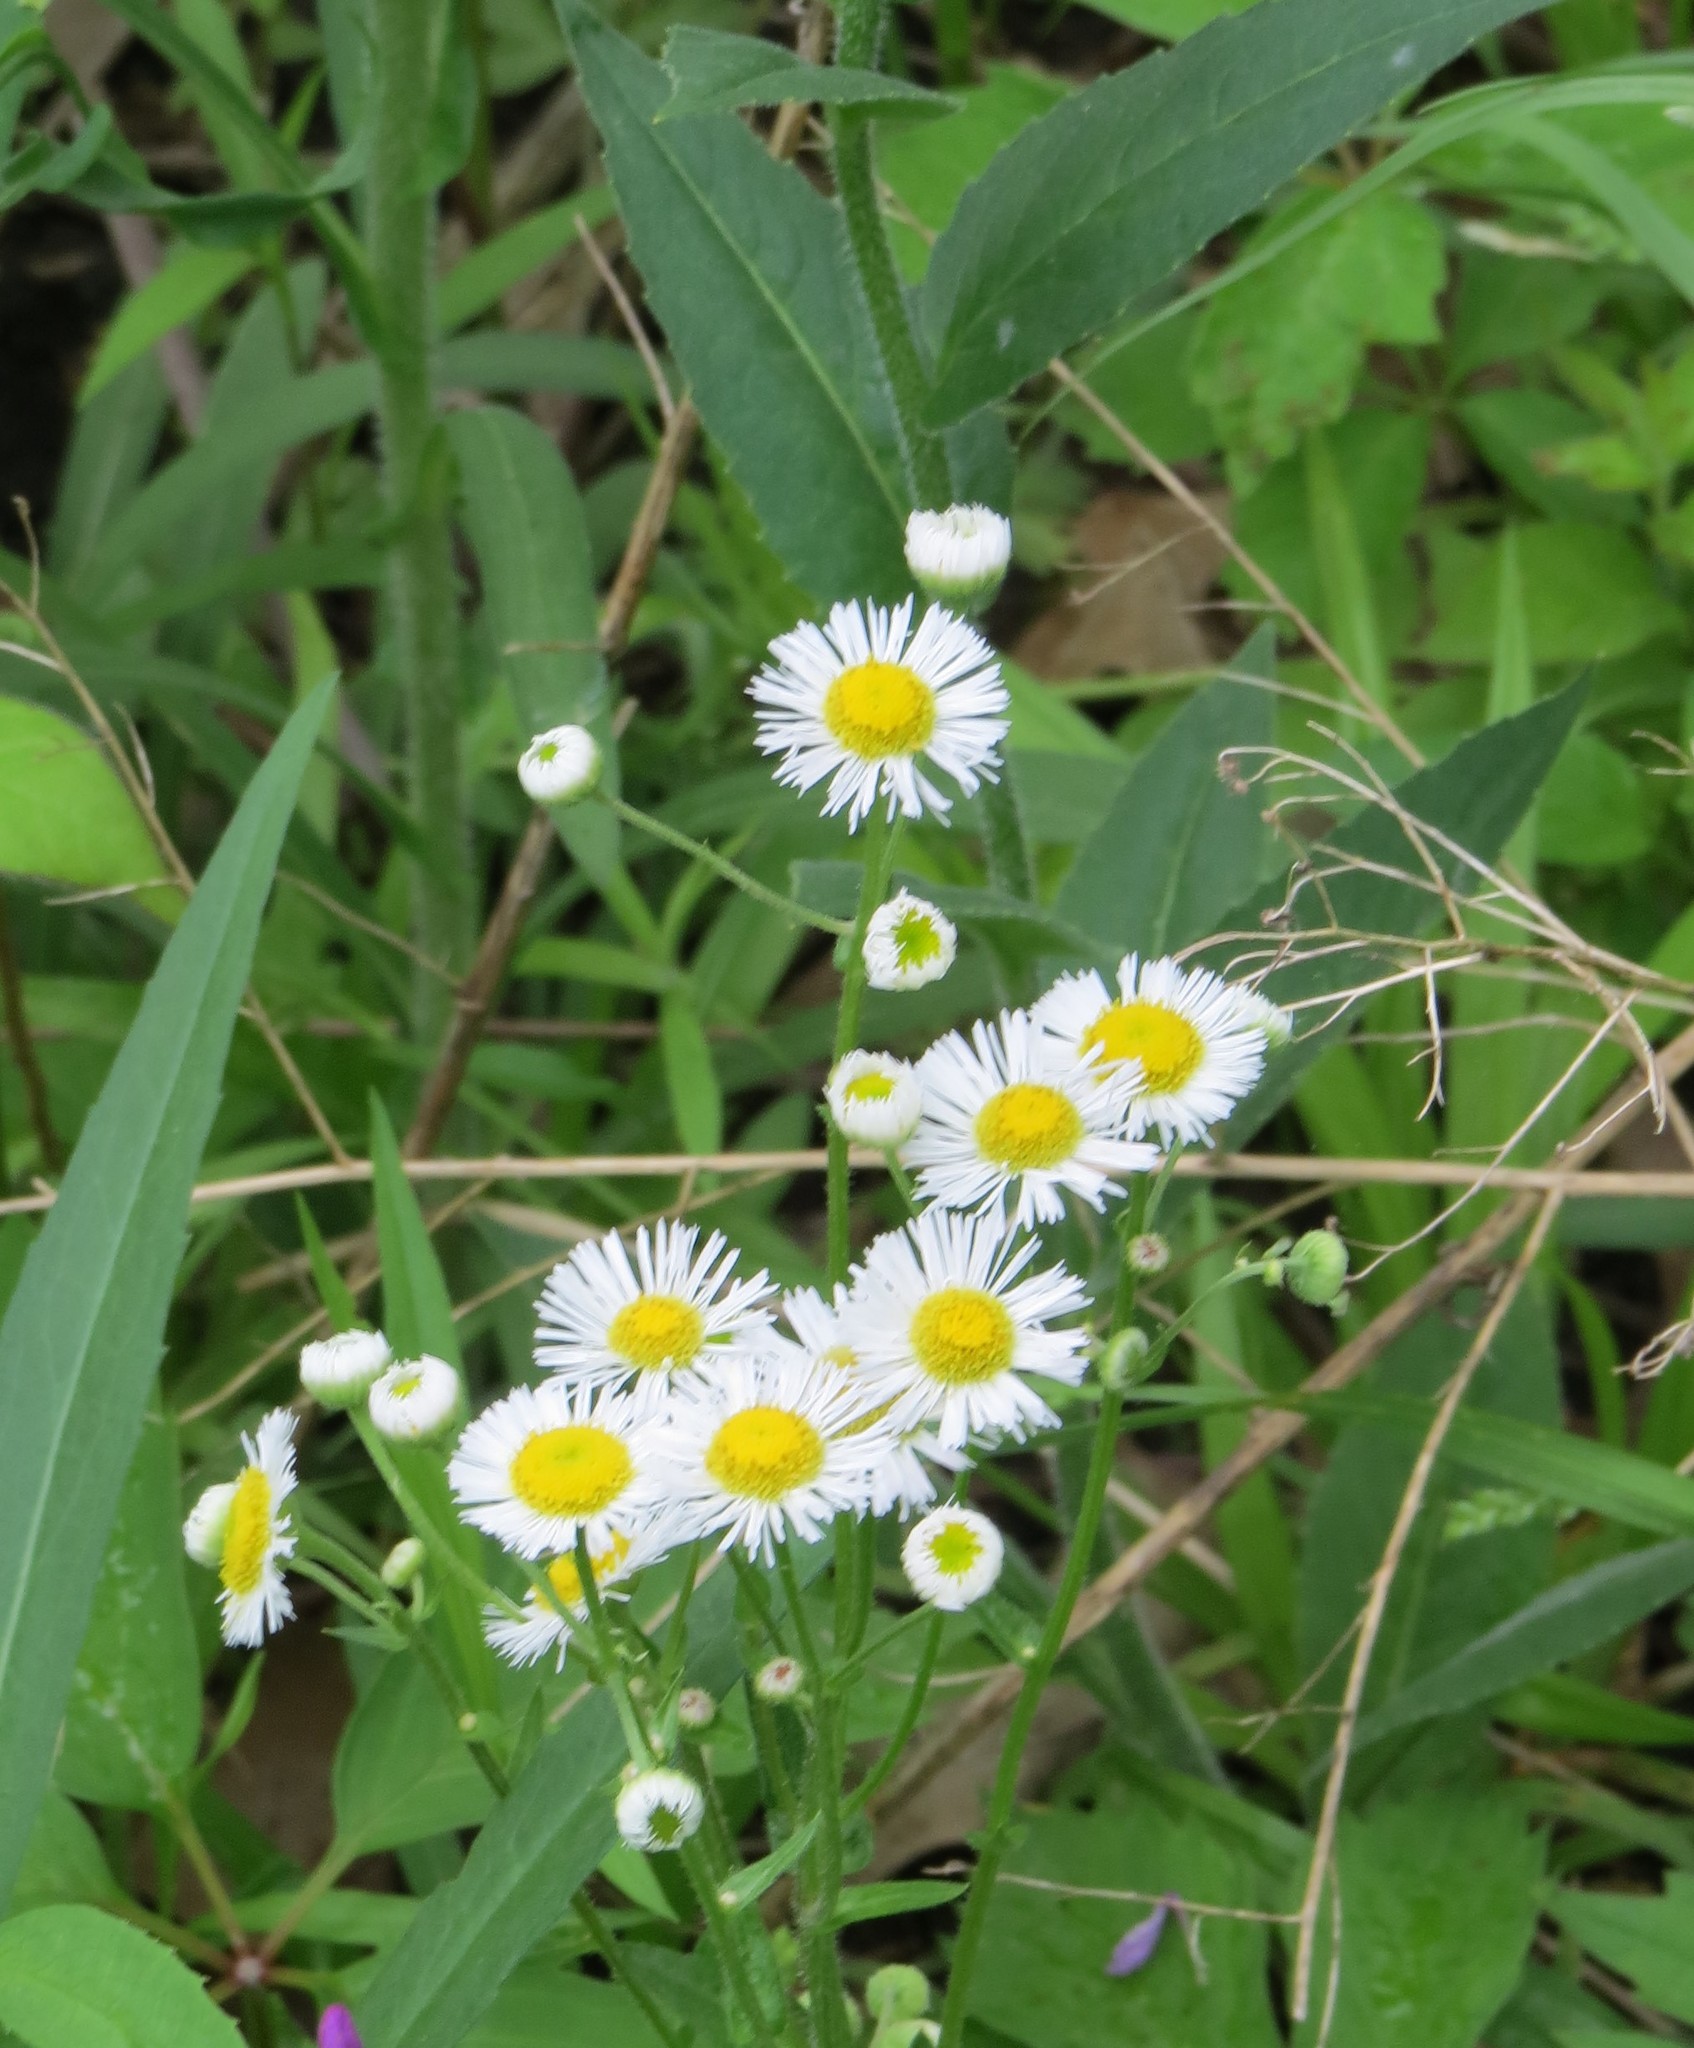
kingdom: Plantae
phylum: Tracheophyta
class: Magnoliopsida
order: Asterales
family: Asteraceae
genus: Erigeron
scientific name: Erigeron philadelphicus
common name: Robin's-plantain
